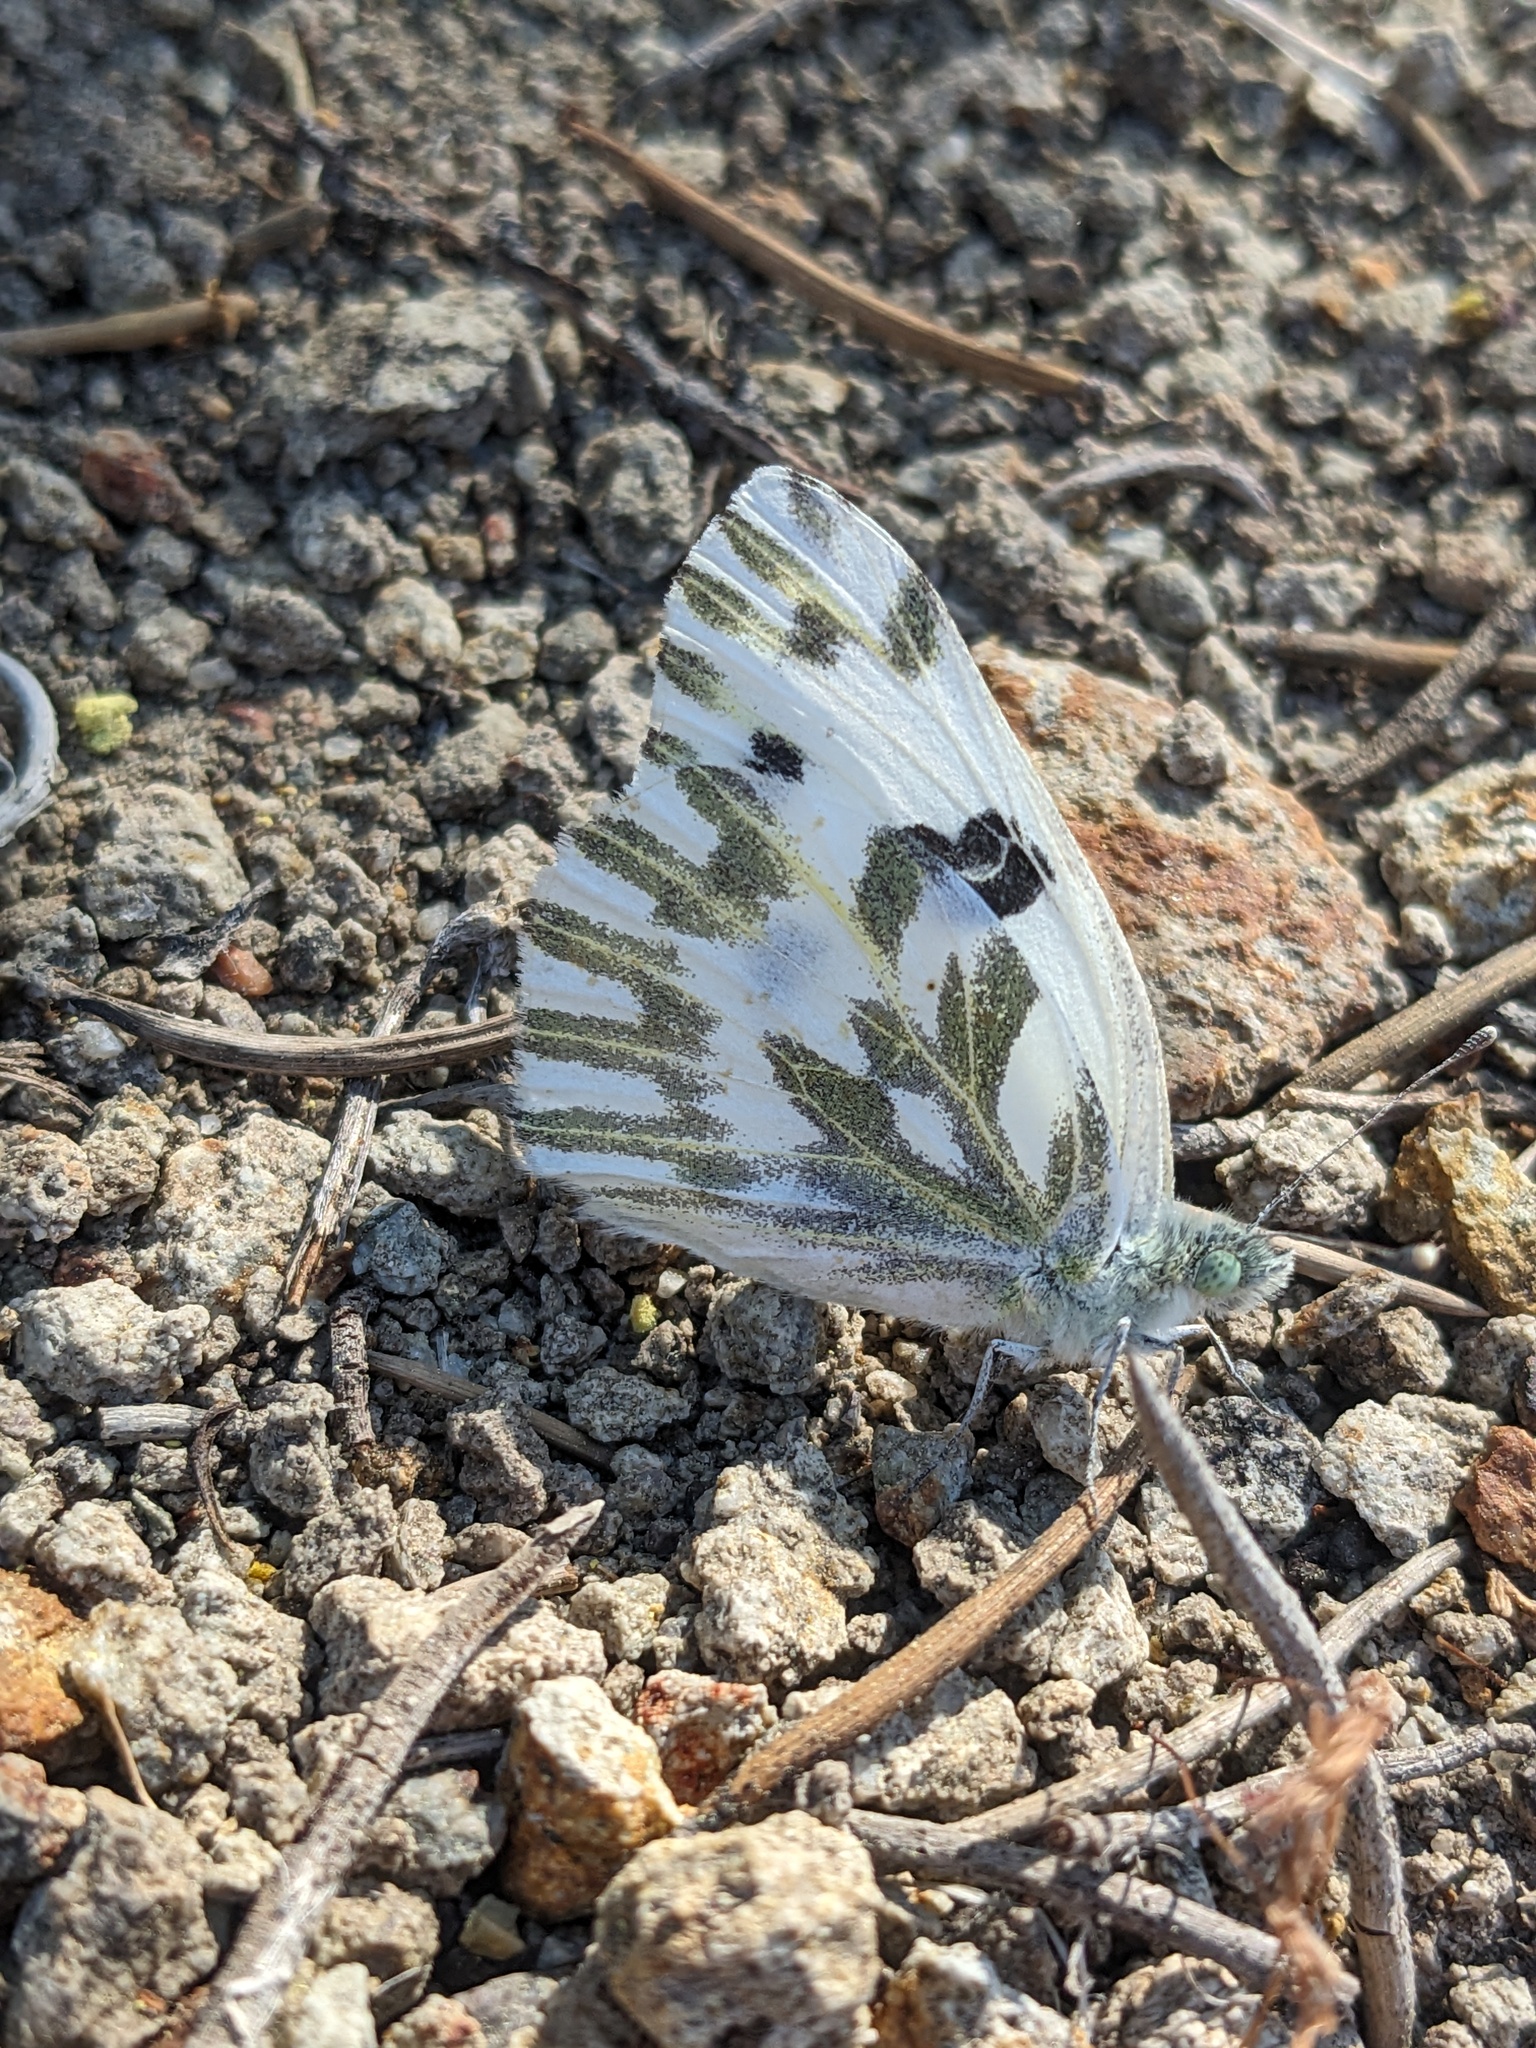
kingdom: Animalia
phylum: Arthropoda
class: Insecta
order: Lepidoptera
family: Pieridae
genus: Pontia
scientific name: Pontia beckerii
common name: Becker's white
